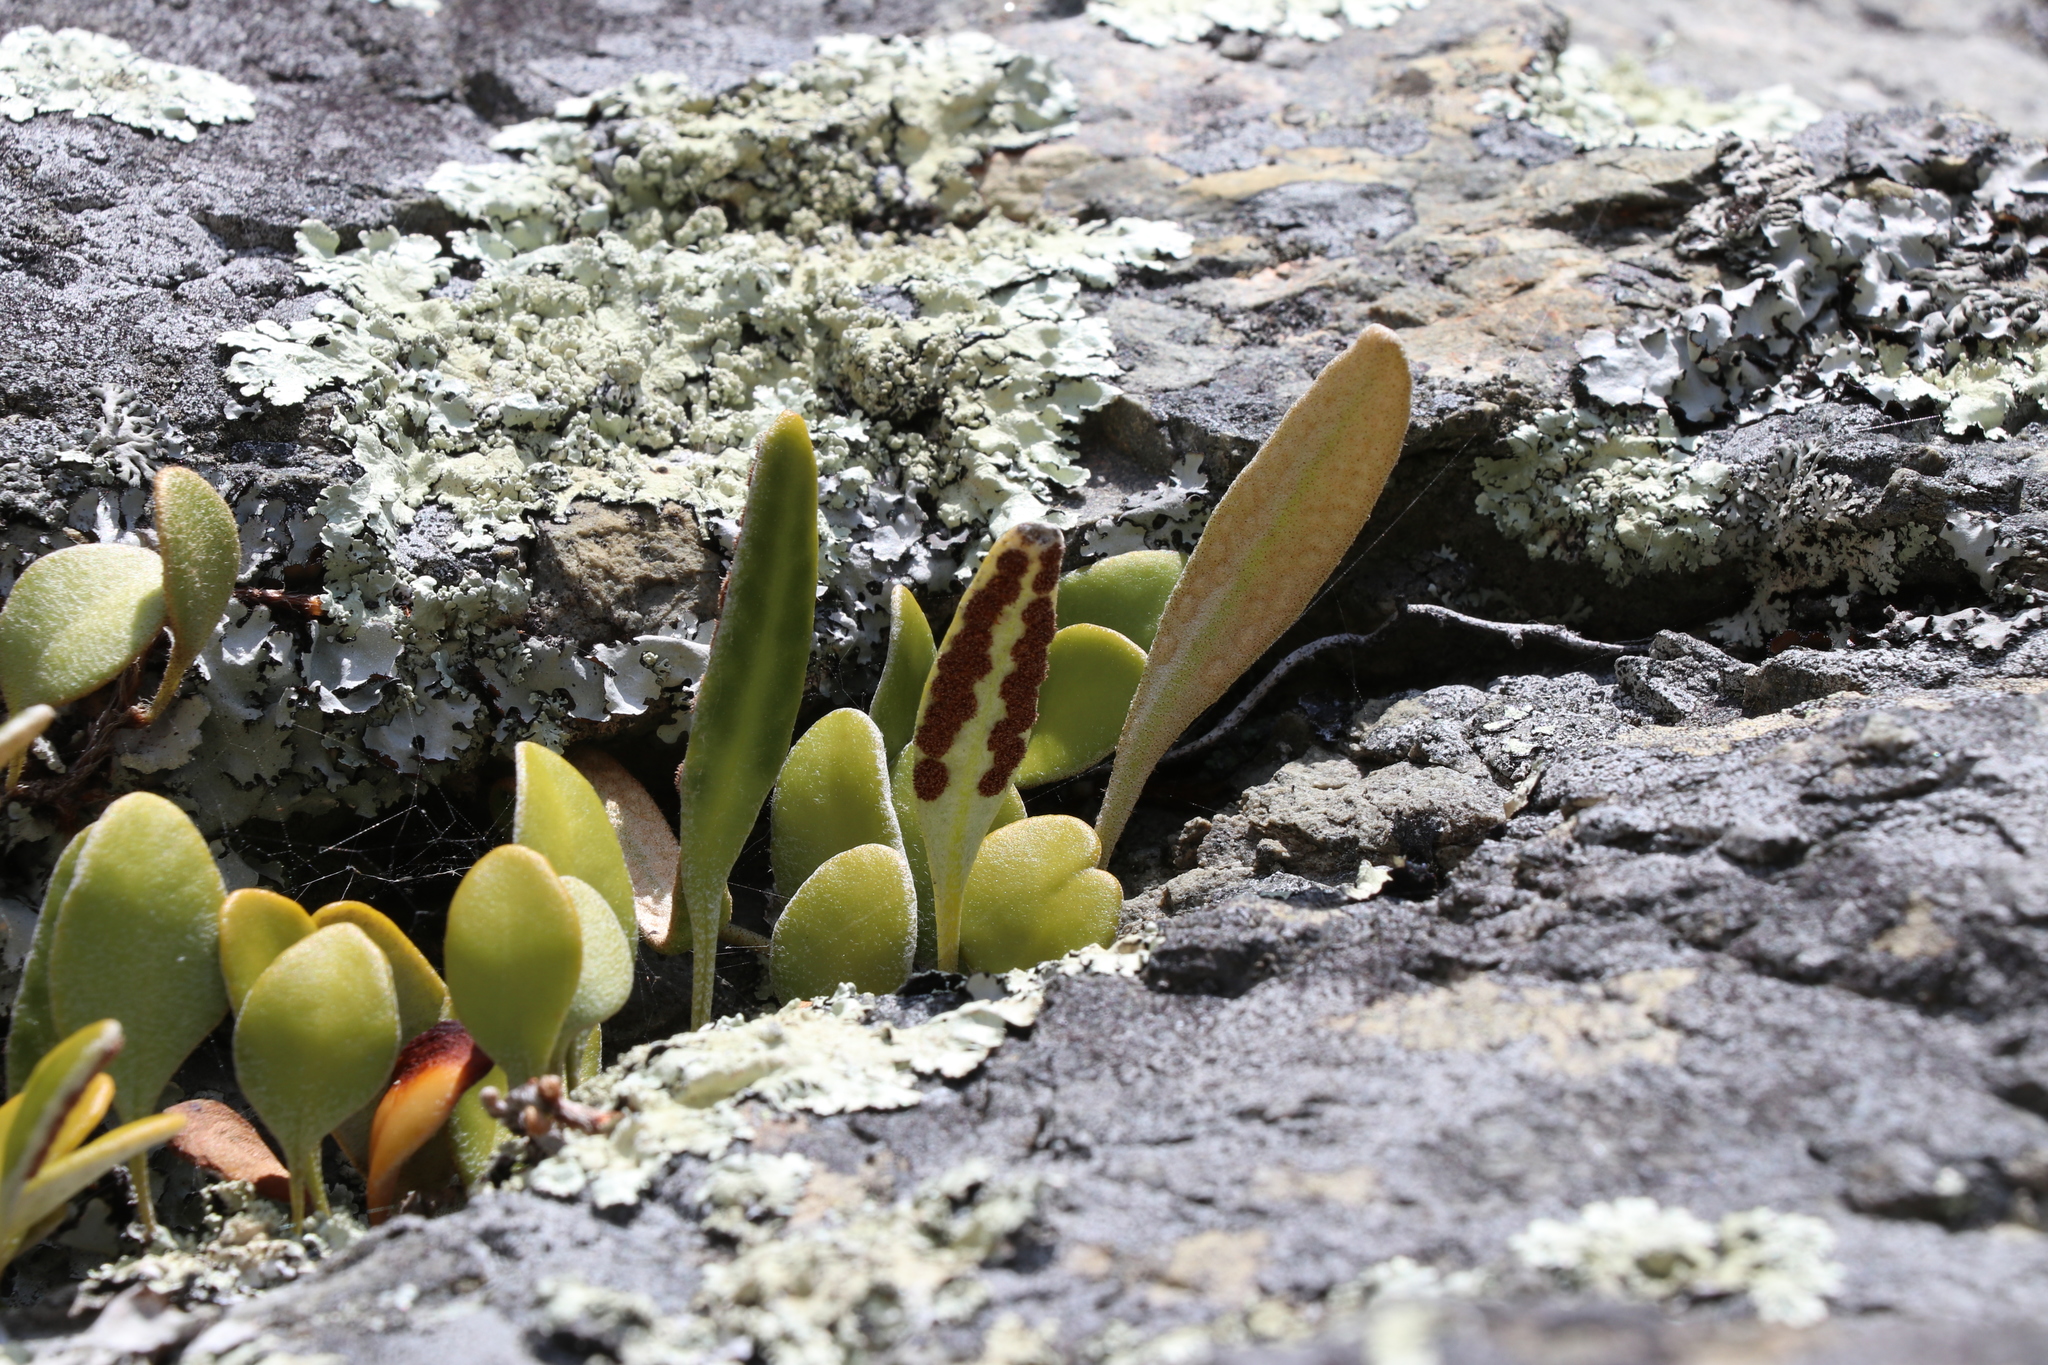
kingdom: Plantae
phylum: Tracheophyta
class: Polypodiopsida
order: Polypodiales
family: Polypodiaceae
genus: Pyrrosia
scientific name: Pyrrosia eleagnifolia
